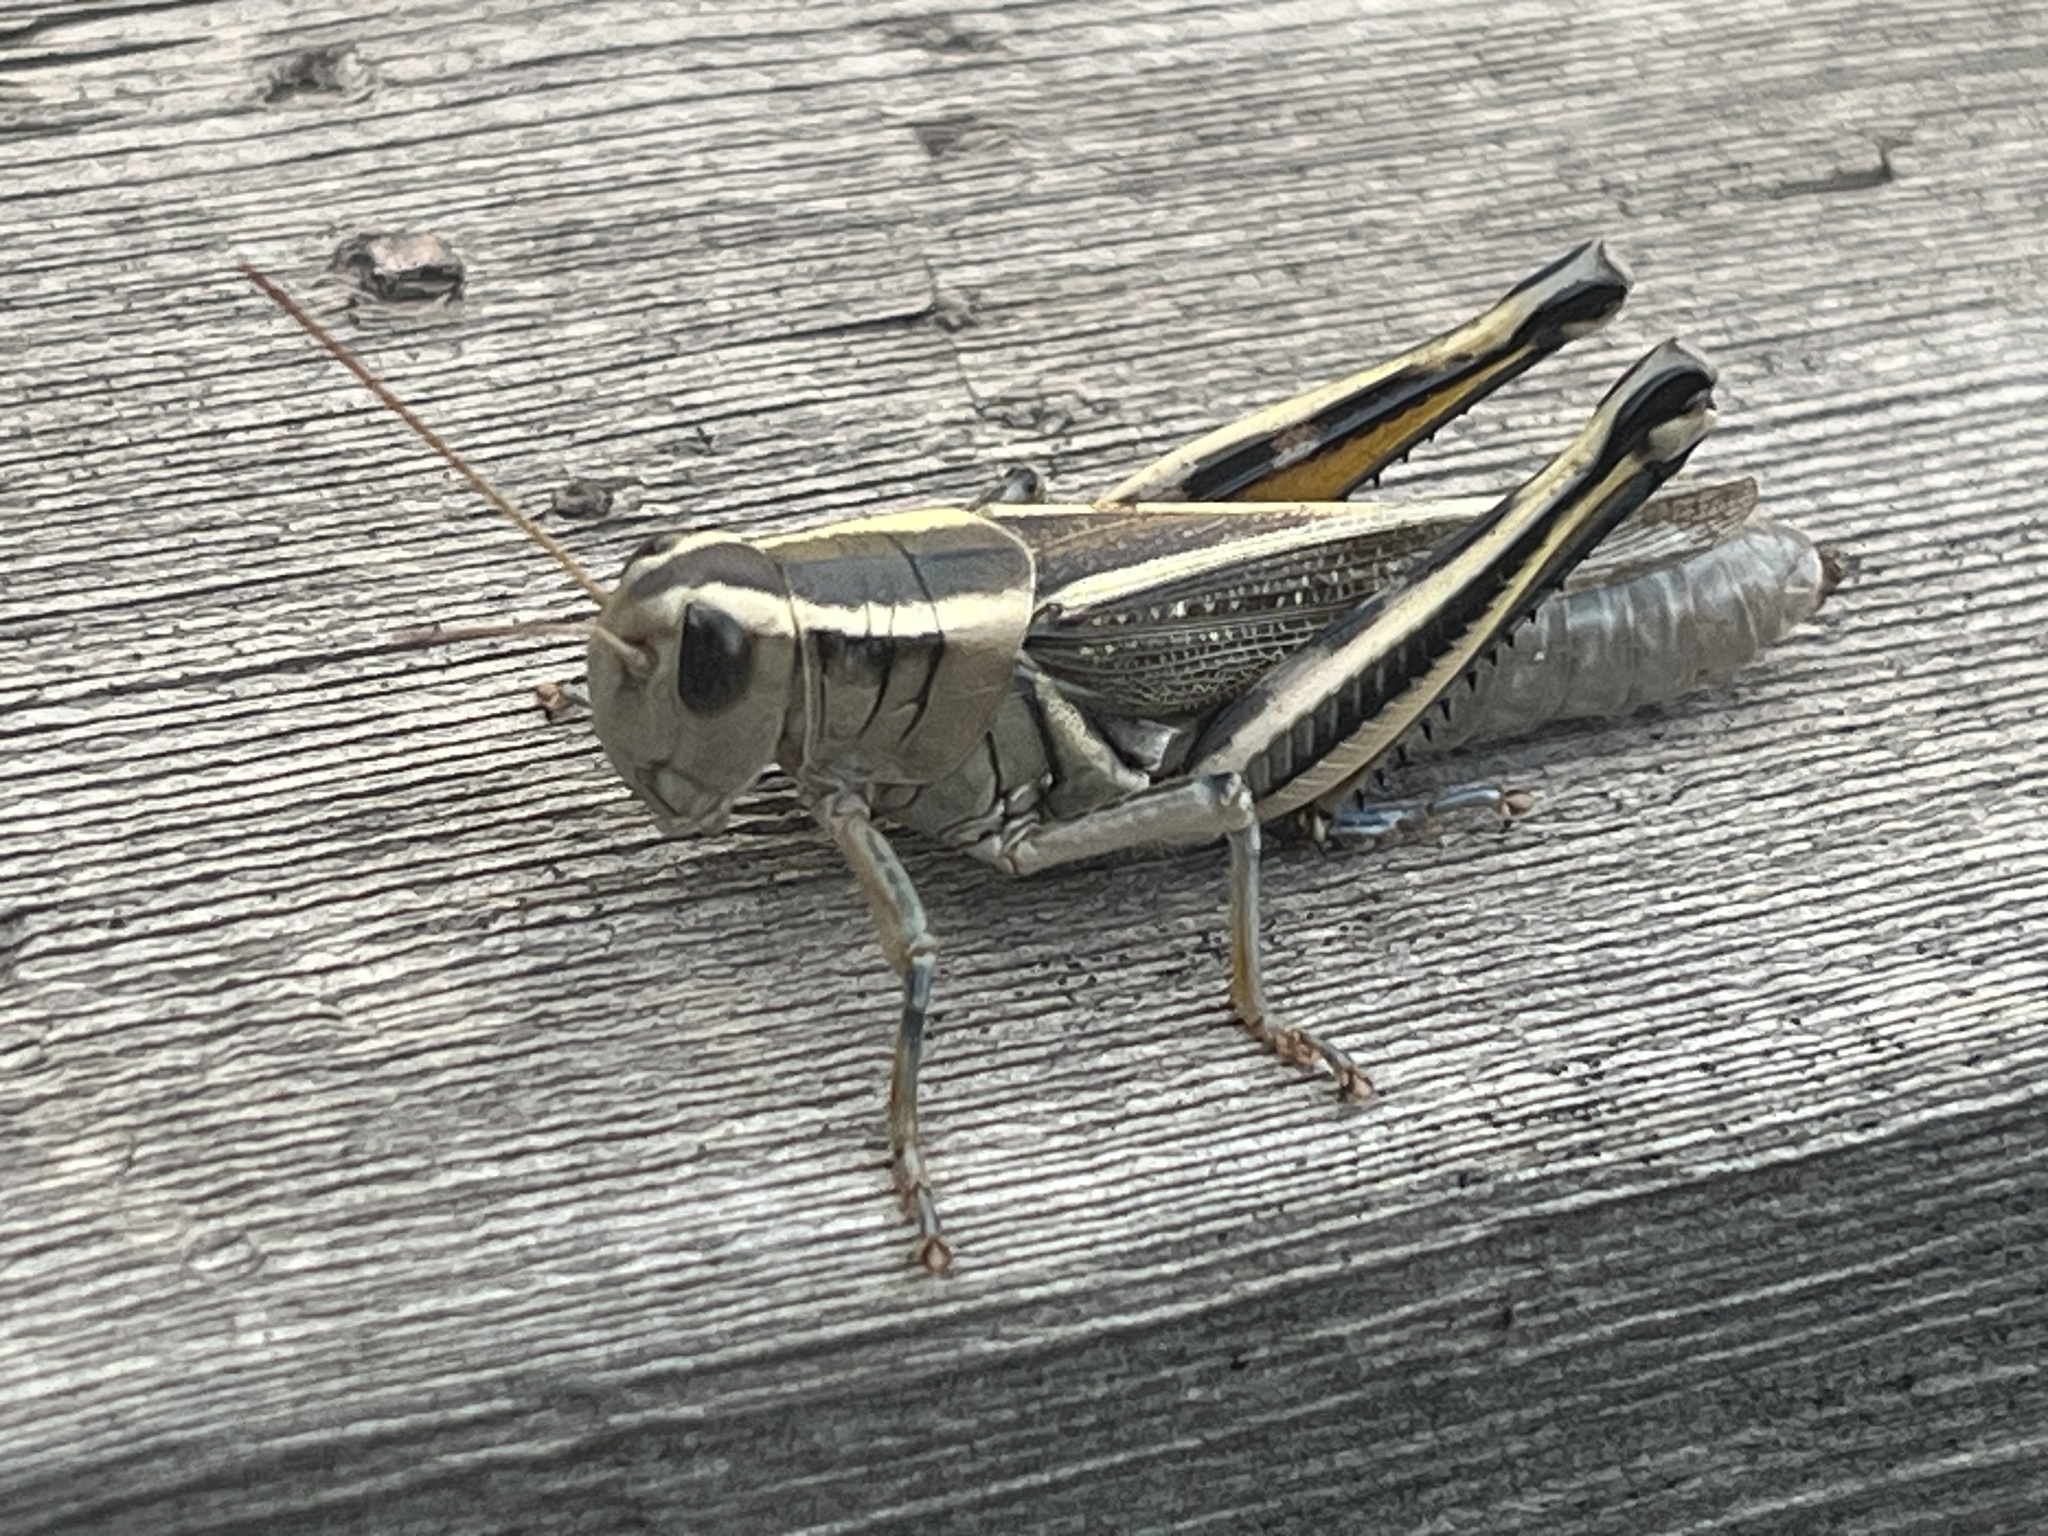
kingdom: Animalia
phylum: Arthropoda
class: Insecta
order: Orthoptera
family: Acrididae
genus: Melanoplus
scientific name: Melanoplus bivittatus
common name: Two-striped grasshopper
